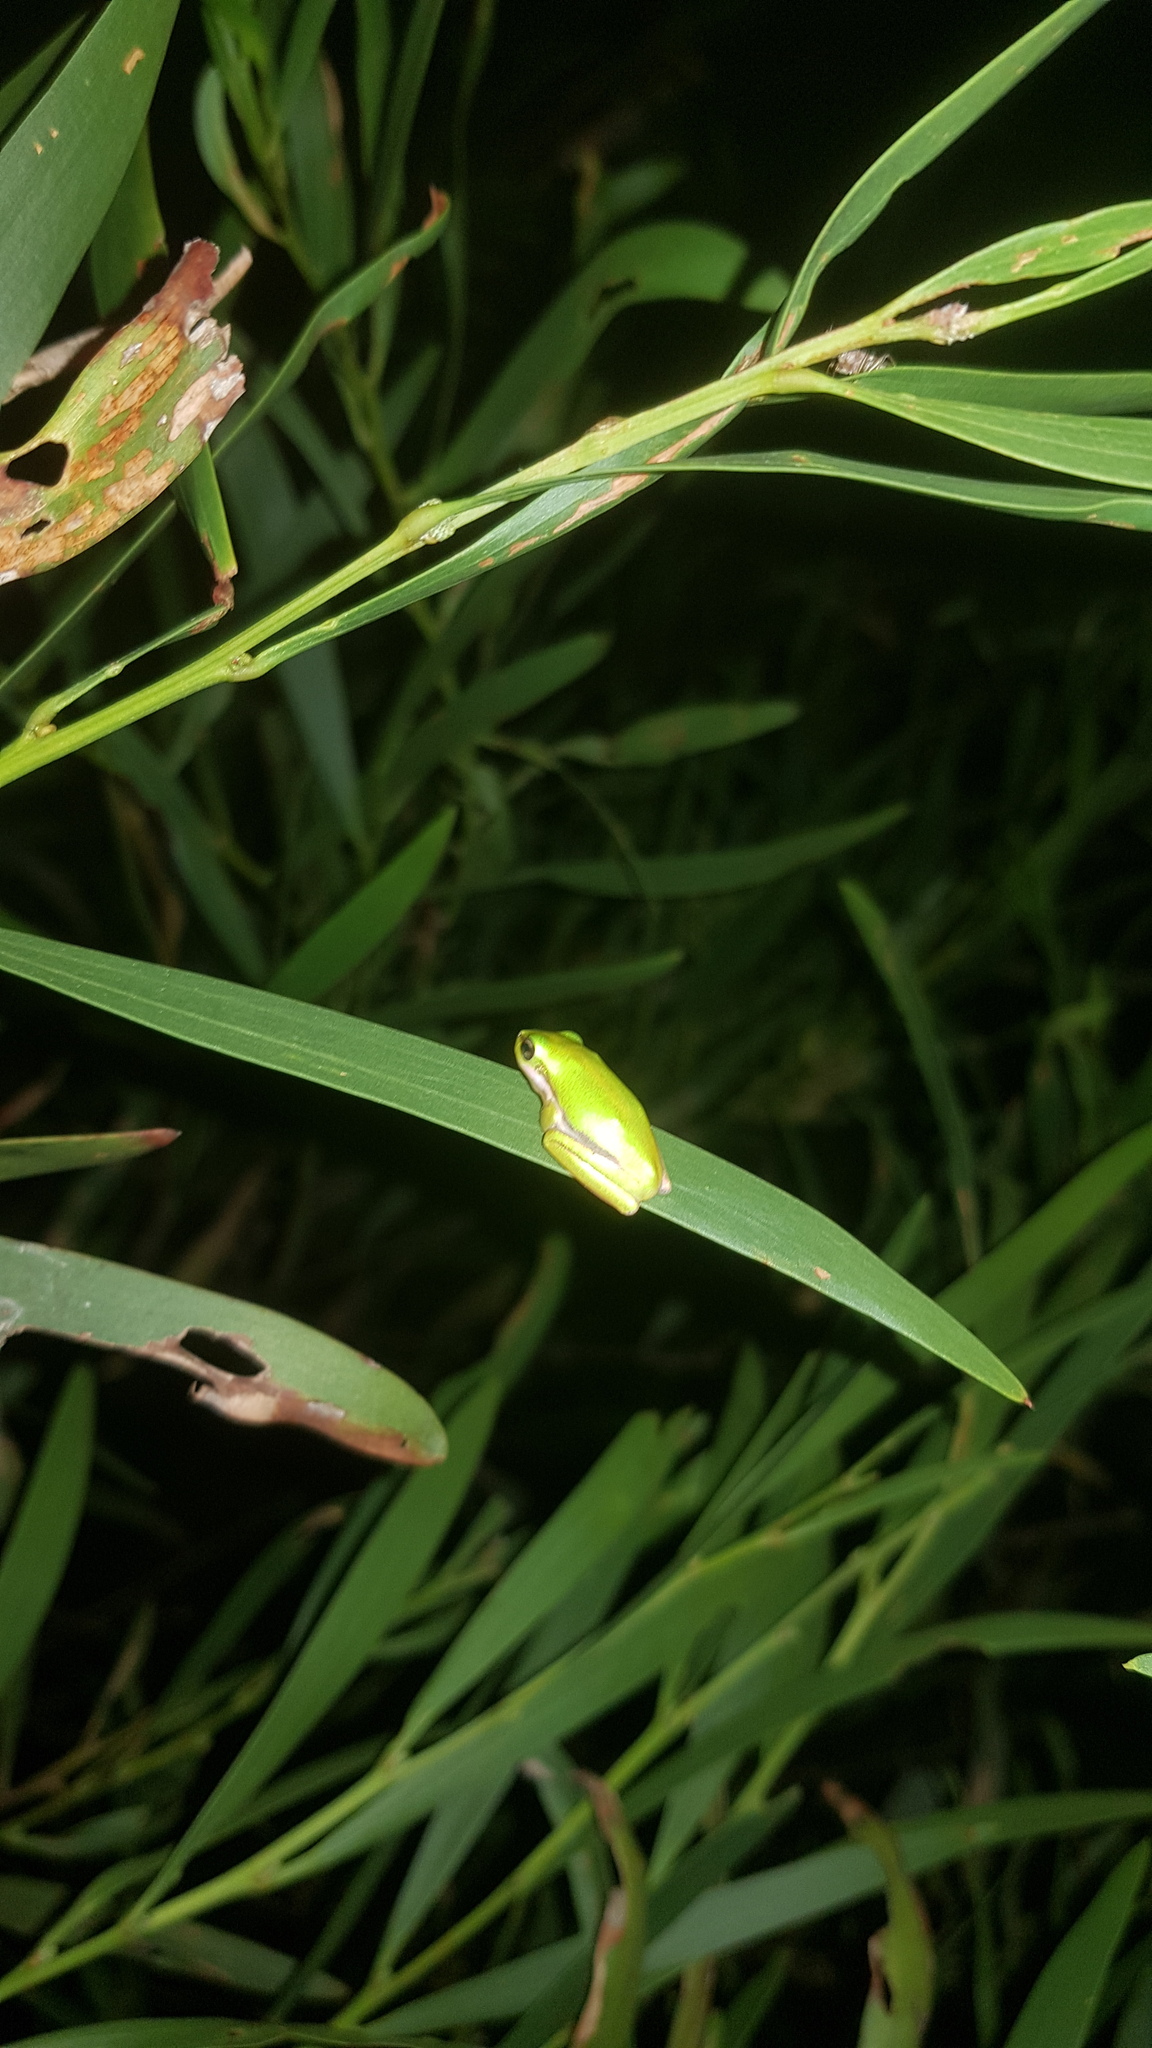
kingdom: Animalia
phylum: Chordata
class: Amphibia
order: Anura
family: Pelodryadidae
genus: Litoria
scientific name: Litoria fallax
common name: Eastern dwarf treefrog
